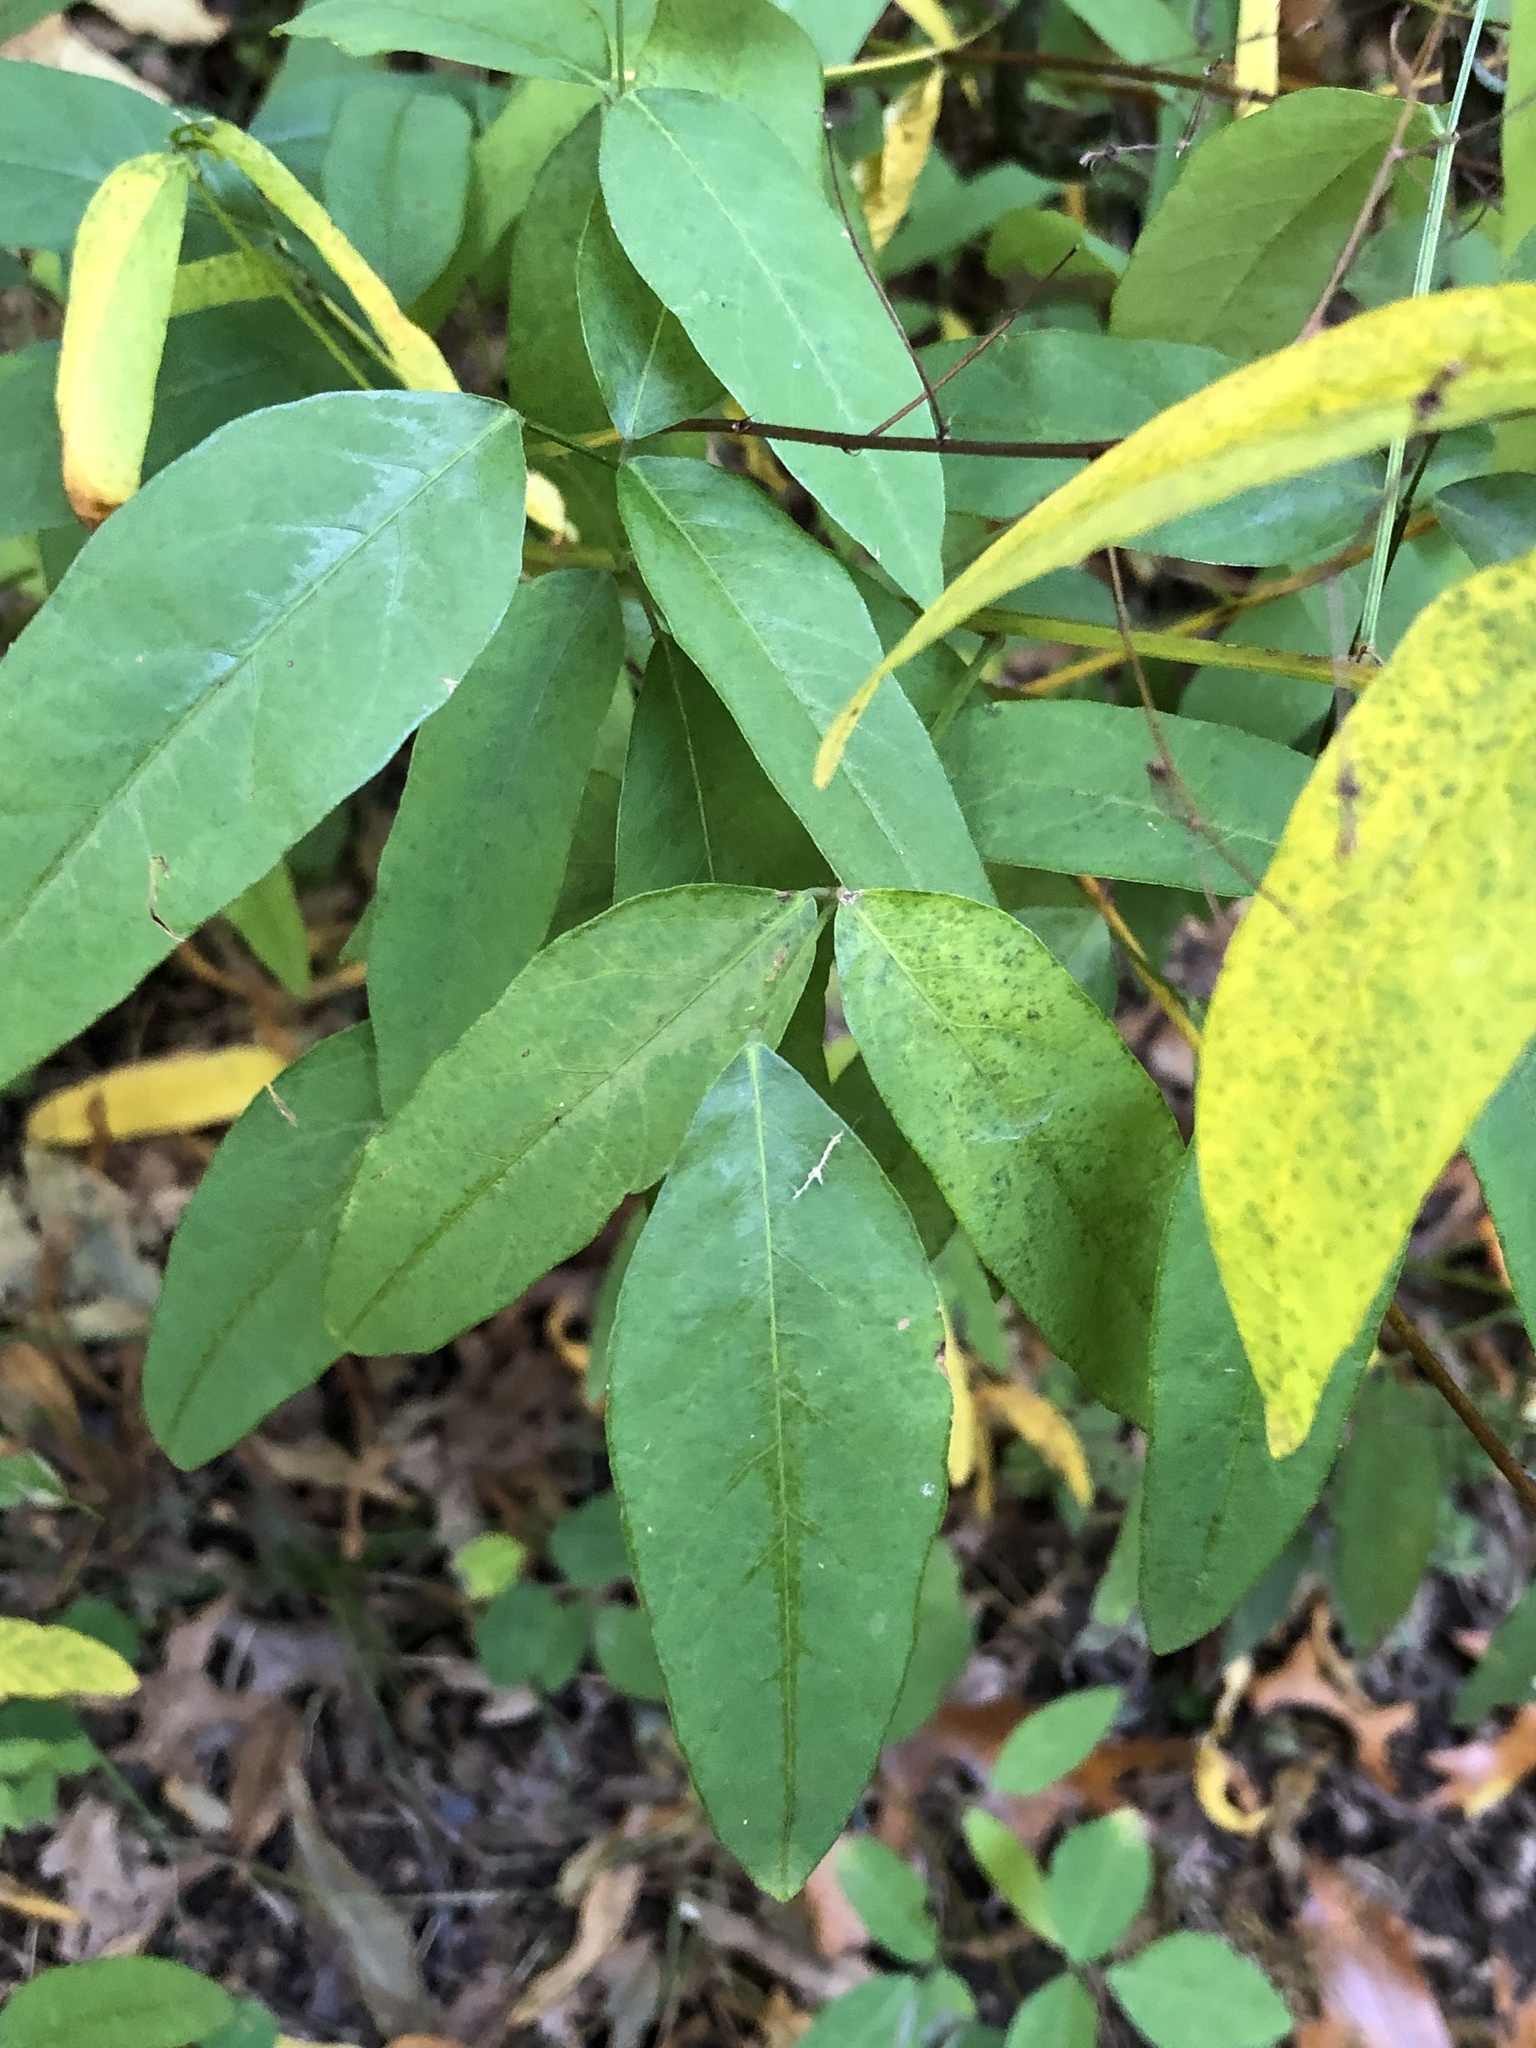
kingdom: Plantae
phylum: Tracheophyta
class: Magnoliopsida
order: Fabales
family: Fabaceae
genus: Desmodium
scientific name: Desmodium paniculatum
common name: Panicled tick-clover
